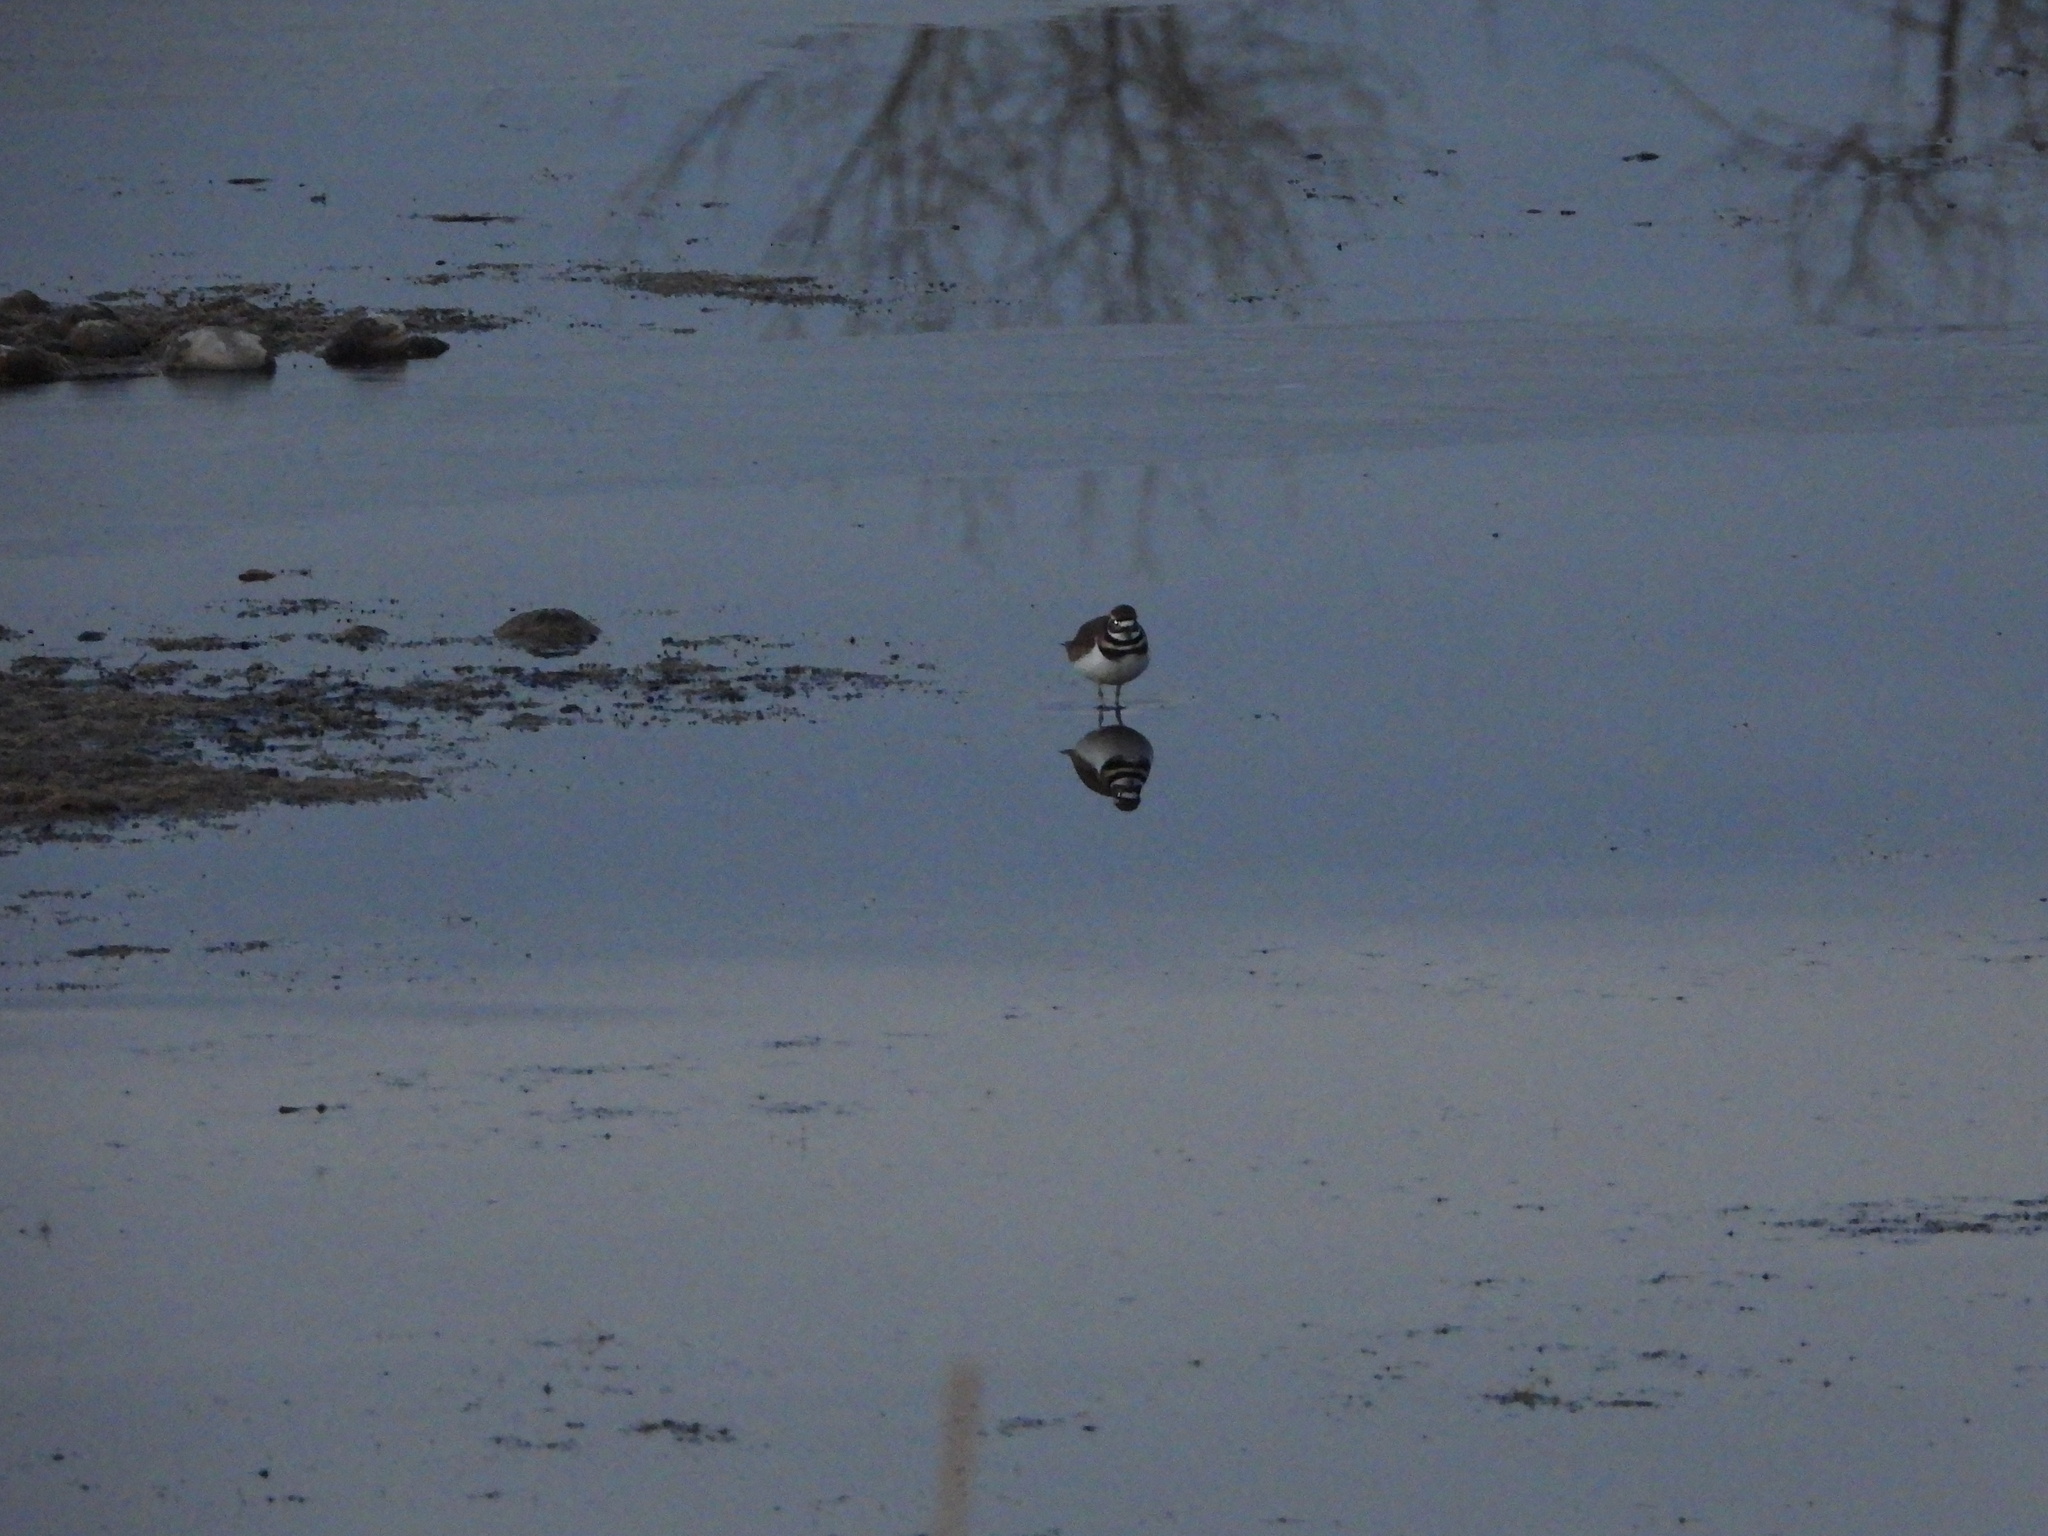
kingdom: Animalia
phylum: Chordata
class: Aves
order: Charadriiformes
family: Charadriidae
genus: Charadrius
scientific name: Charadrius vociferus
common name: Killdeer
